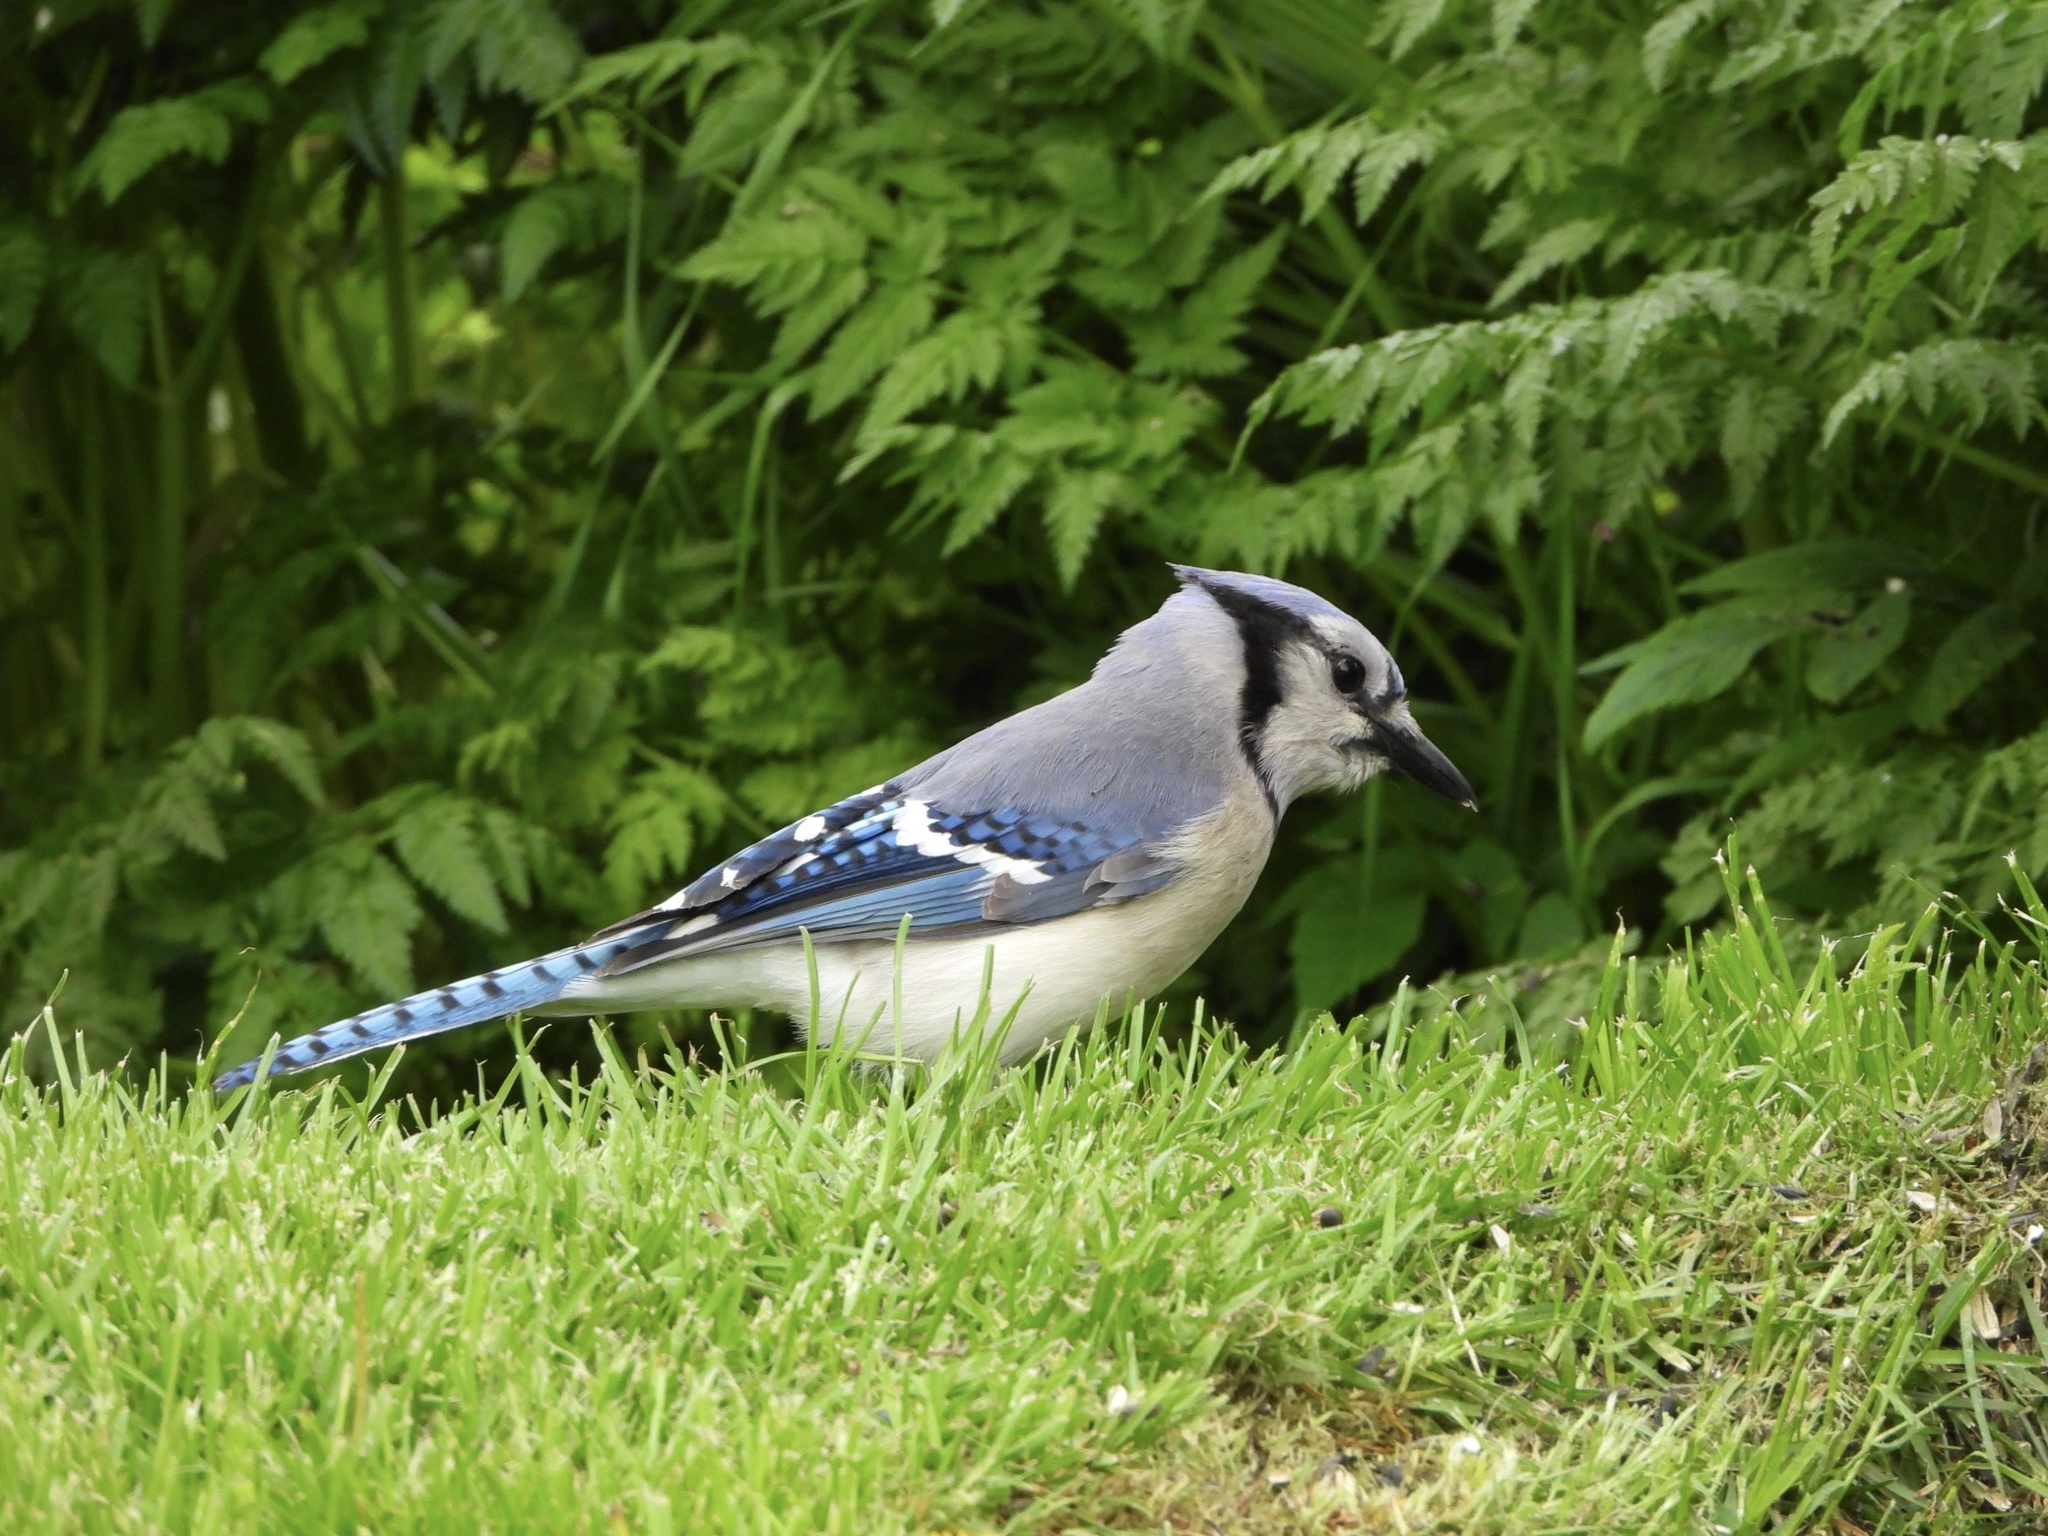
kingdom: Animalia
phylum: Chordata
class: Aves
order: Passeriformes
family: Corvidae
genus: Cyanocitta
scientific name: Cyanocitta cristata
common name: Blue jay
